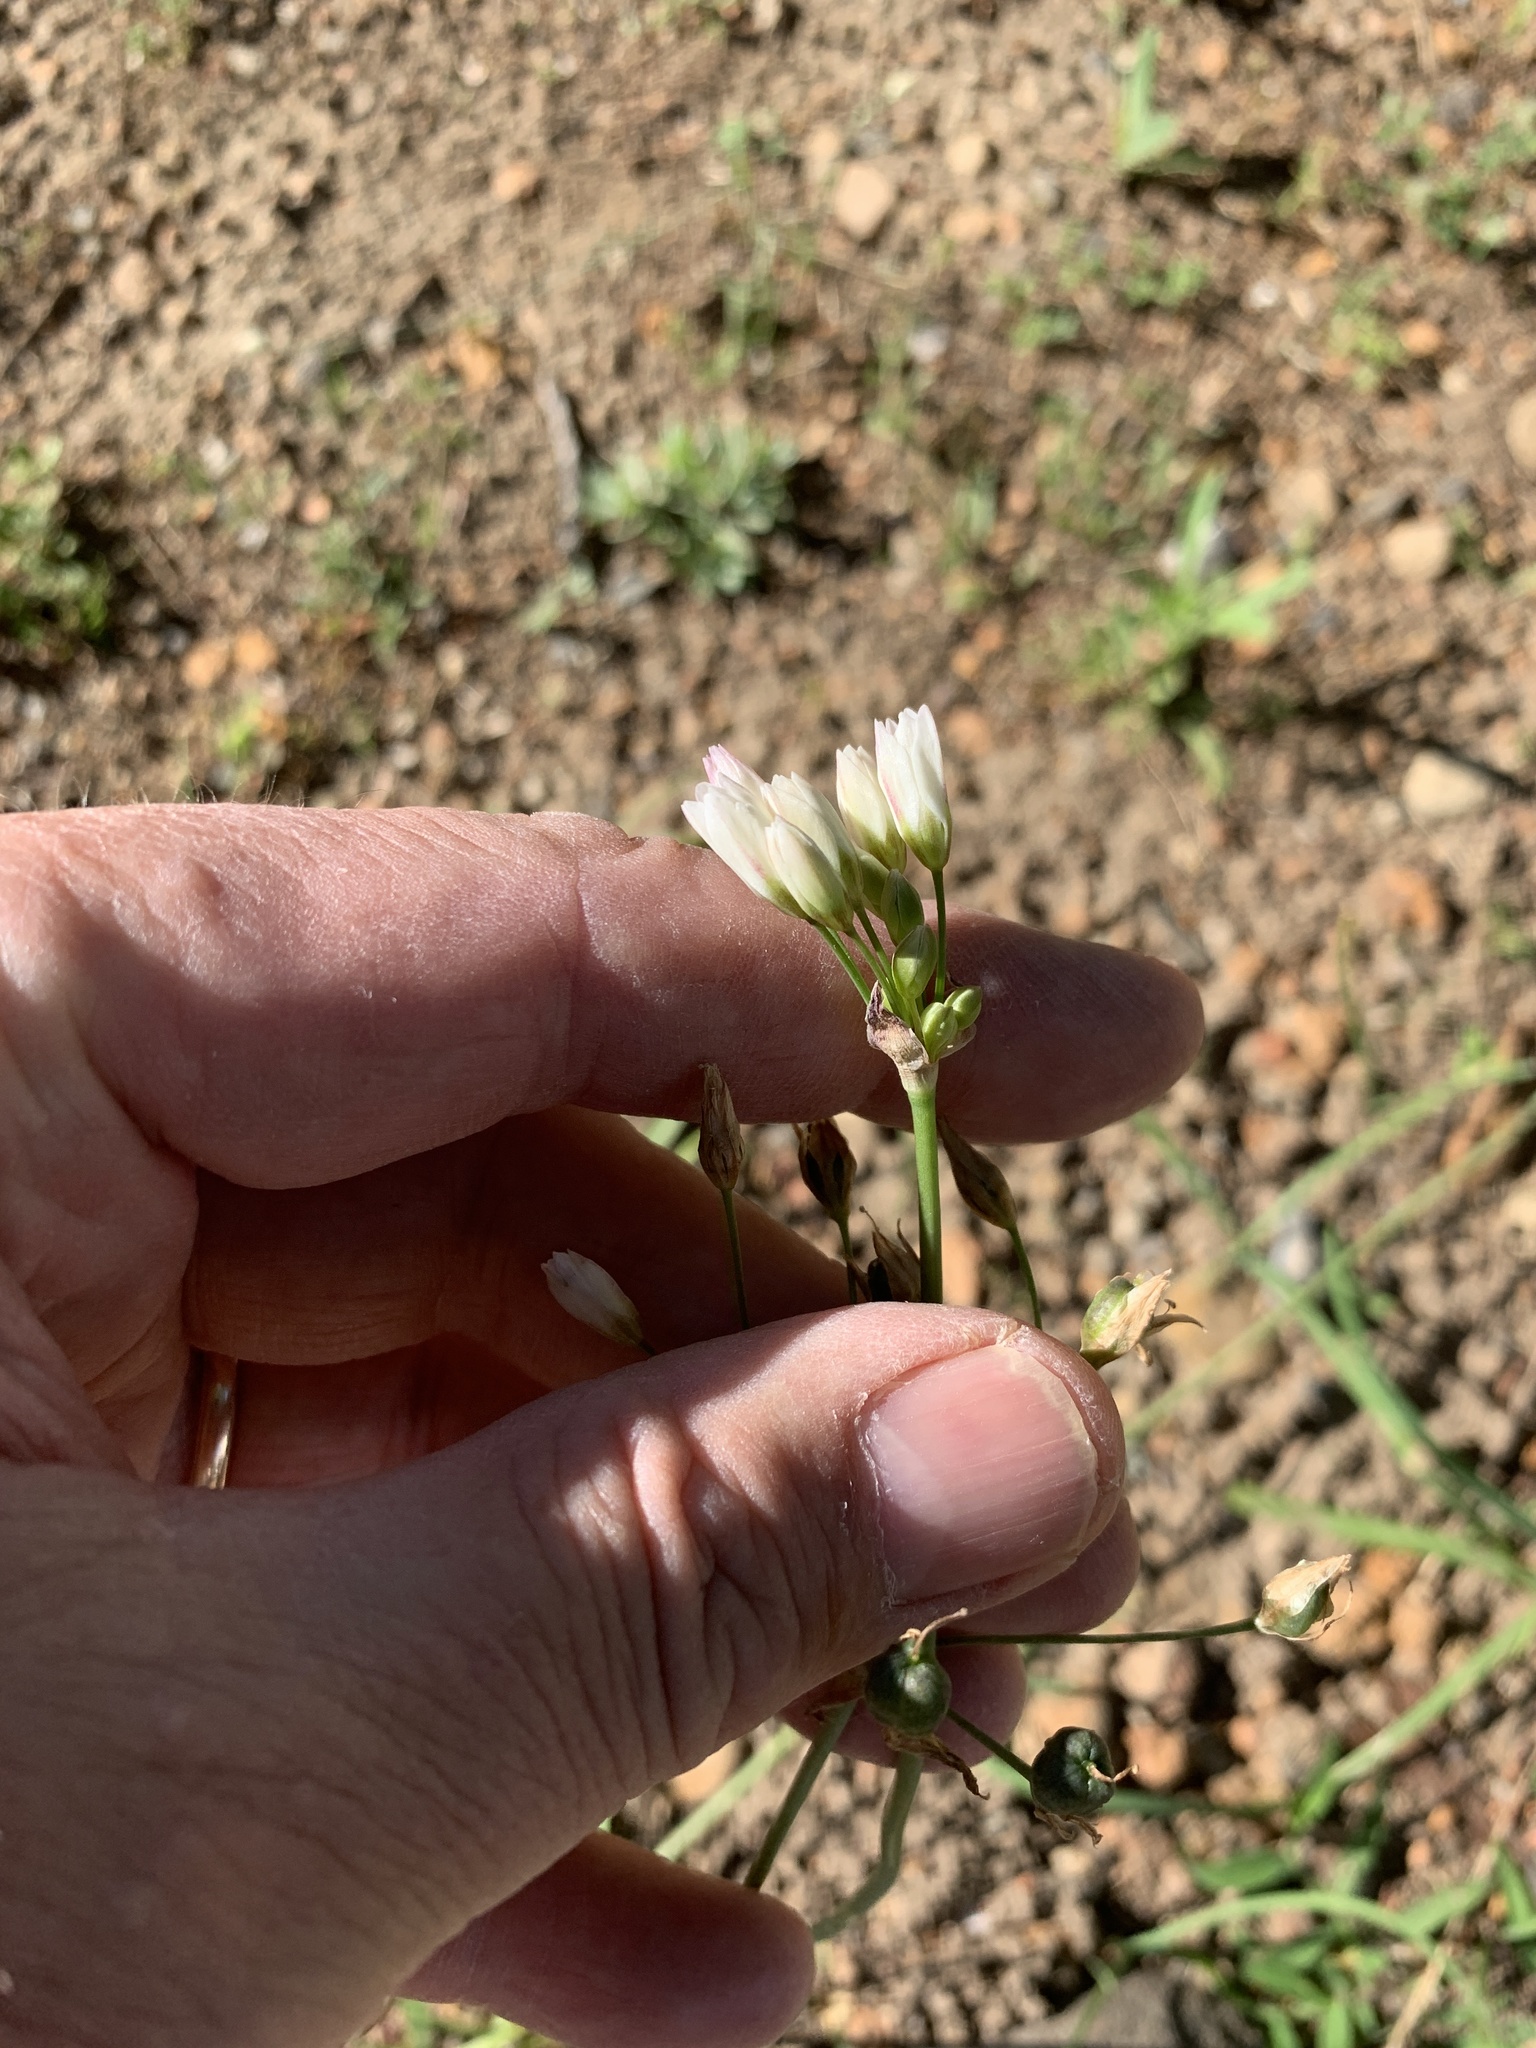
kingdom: Plantae
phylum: Tracheophyta
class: Liliopsida
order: Asparagales
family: Amaryllidaceae
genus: Nothoscordum
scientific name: Nothoscordum gracile
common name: Slender false garlic
